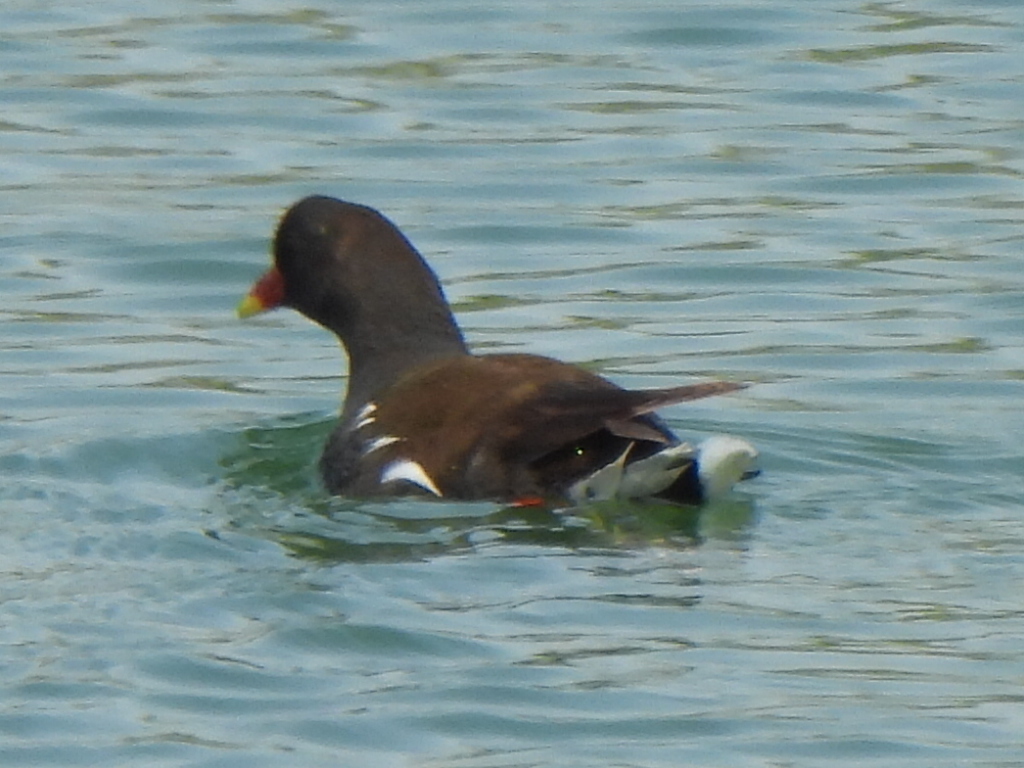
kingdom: Animalia
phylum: Chordata
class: Aves
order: Gruiformes
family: Rallidae
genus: Gallinula
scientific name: Gallinula chloropus
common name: Common moorhen
